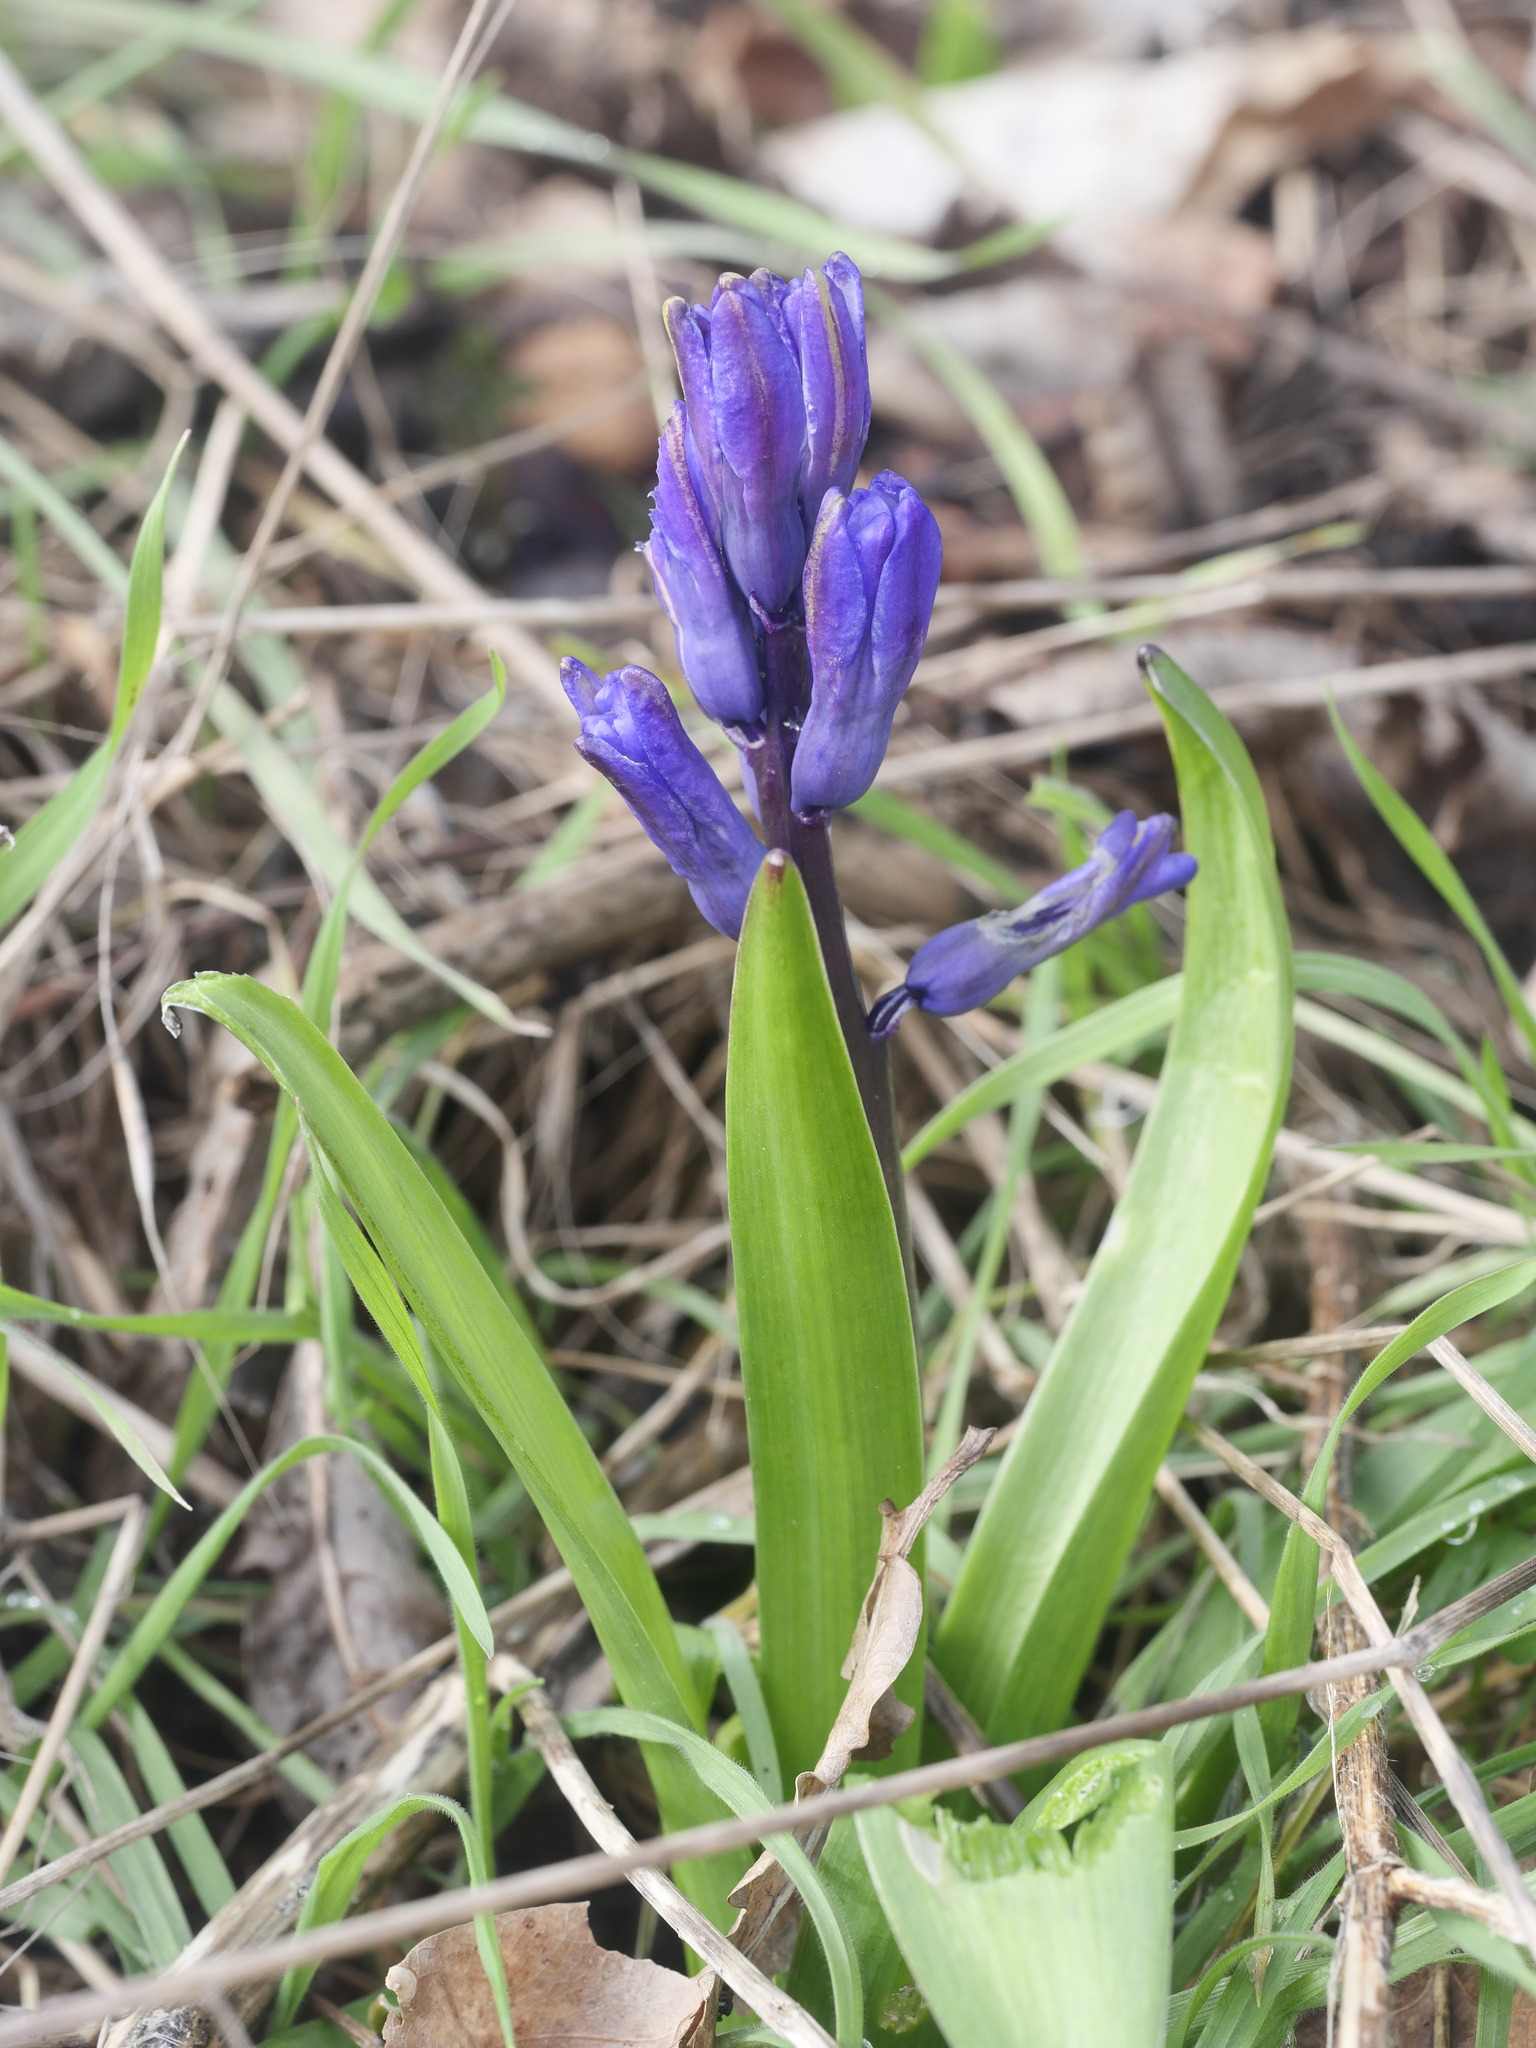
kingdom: Plantae
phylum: Tracheophyta
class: Liliopsida
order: Asparagales
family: Asparagaceae
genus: Hyacinthus
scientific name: Hyacinthus orientalis
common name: Hyacinth
